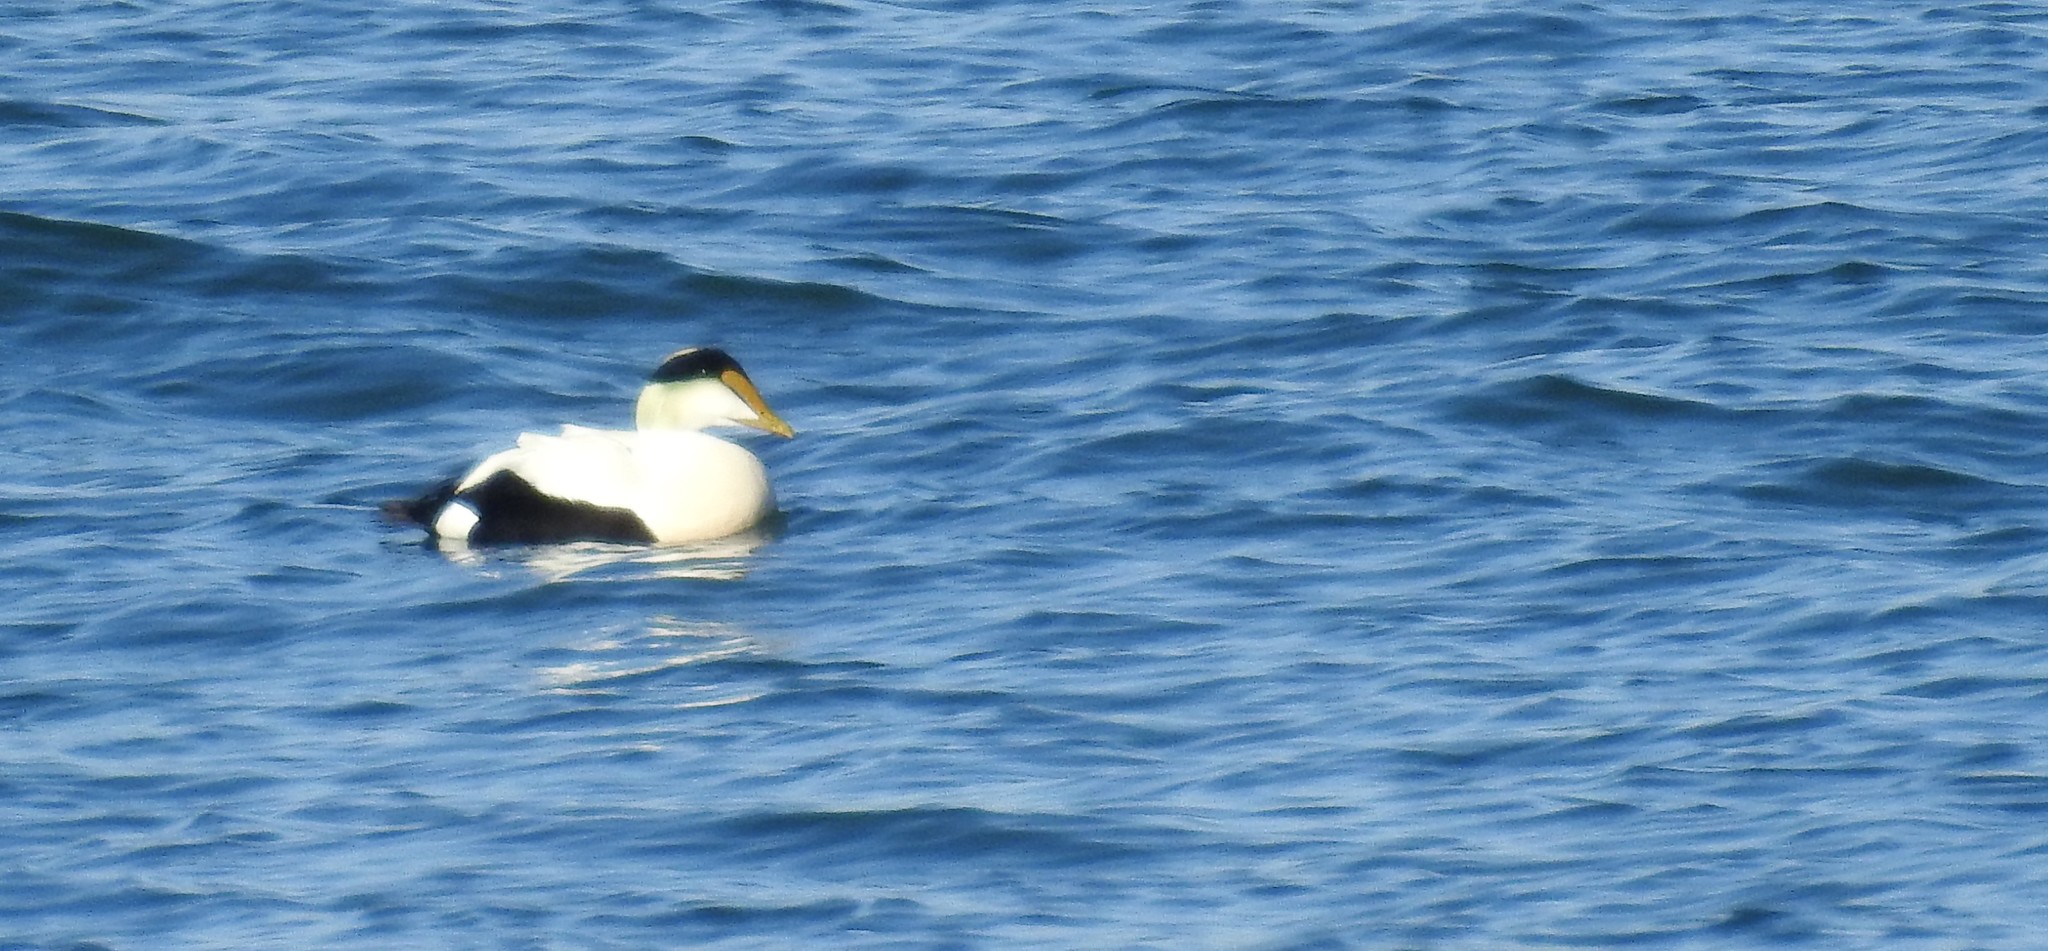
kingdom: Animalia
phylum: Chordata
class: Aves
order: Anseriformes
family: Anatidae
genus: Somateria
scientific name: Somateria mollissima
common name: Common eider
